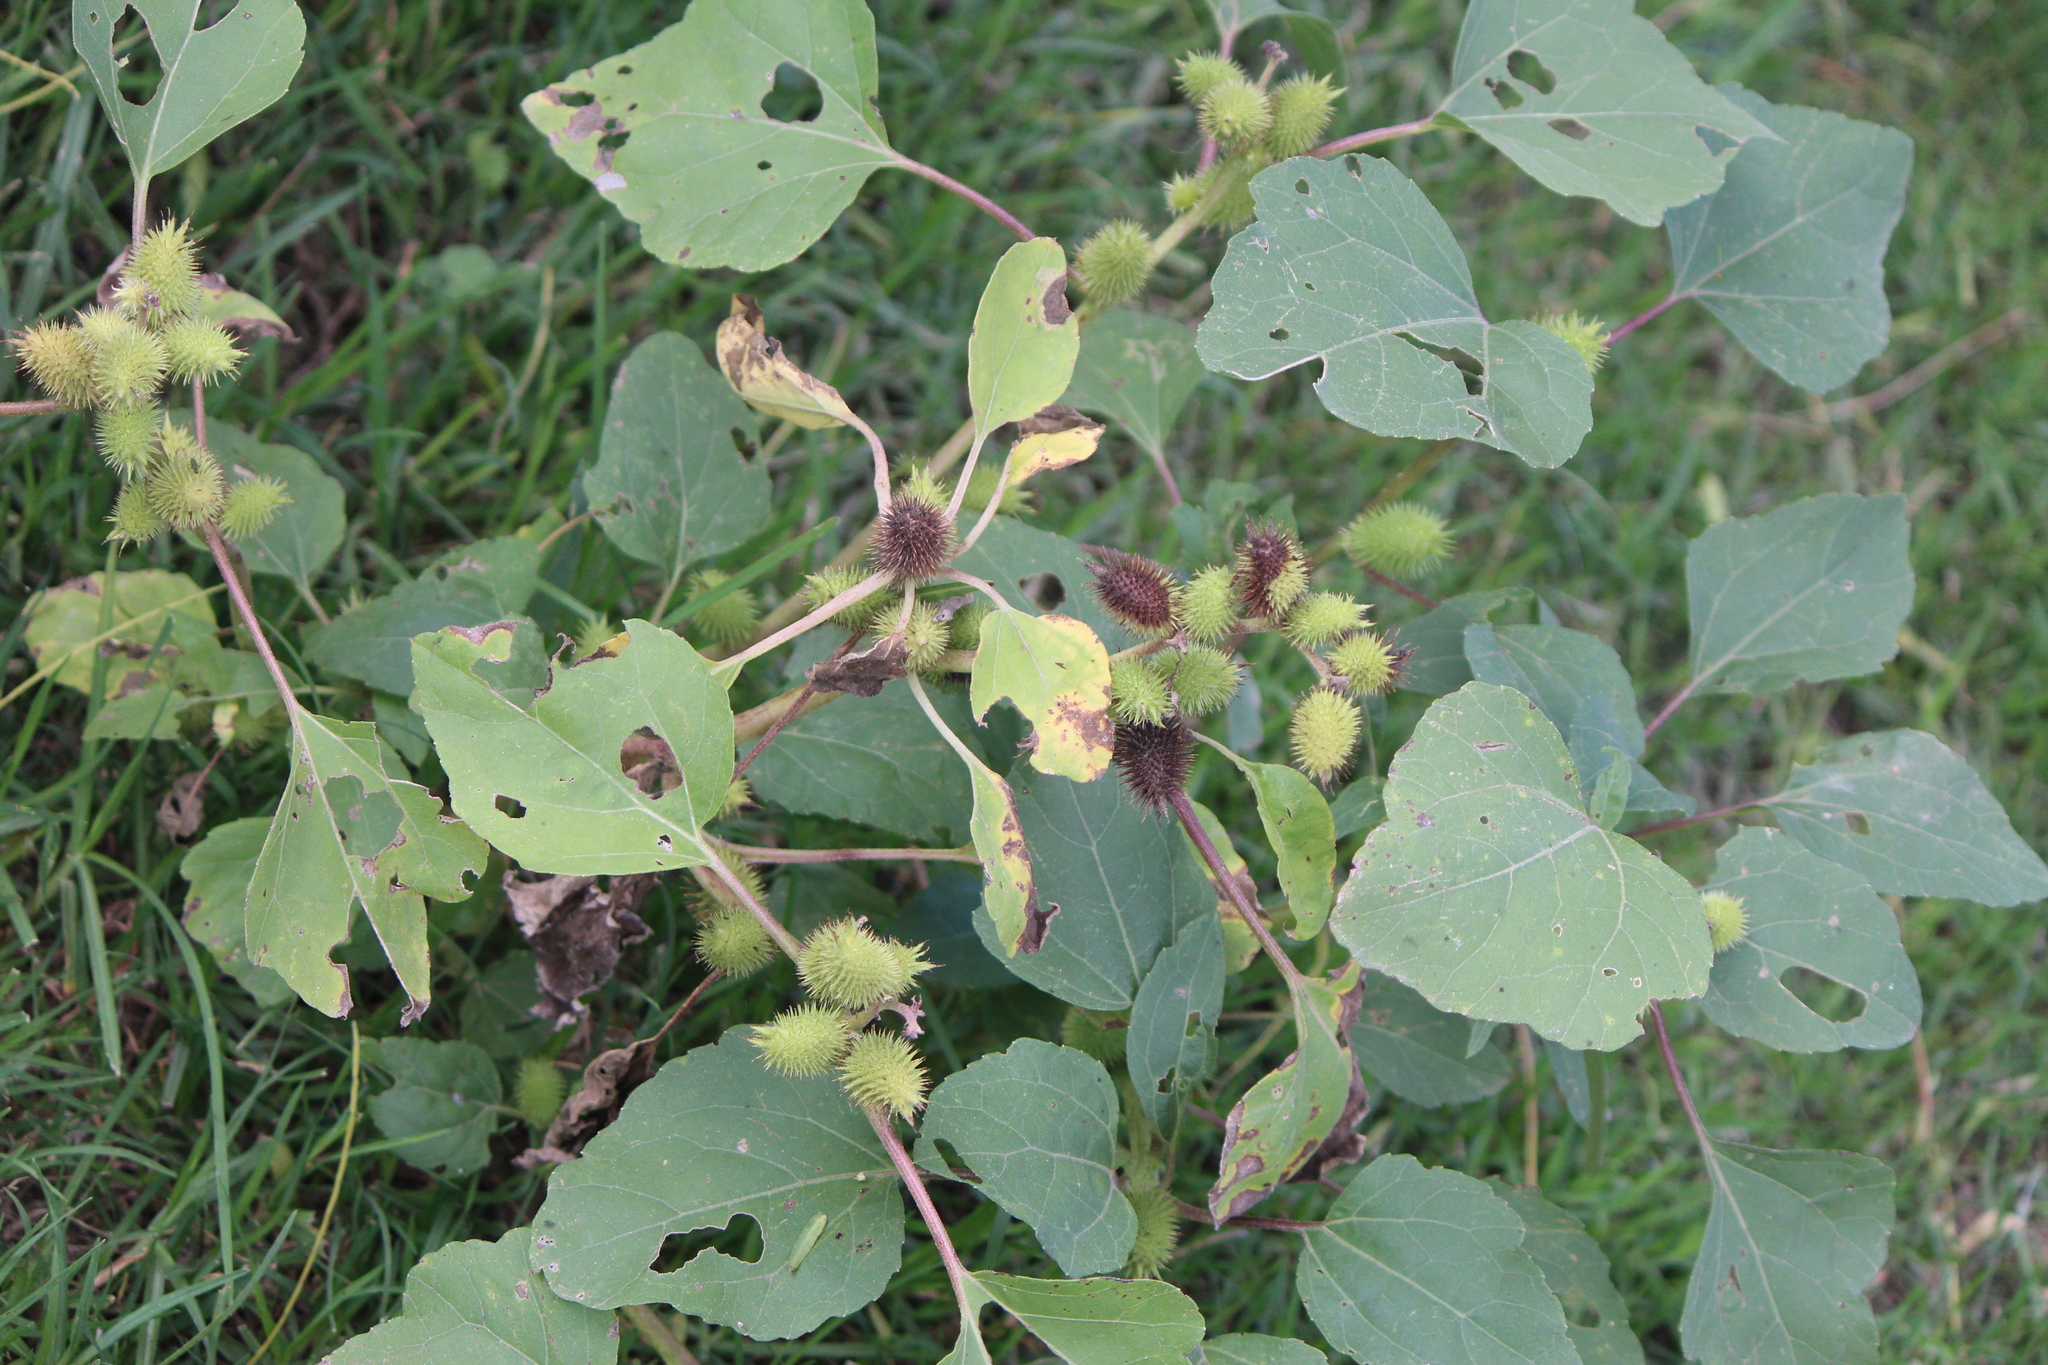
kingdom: Plantae
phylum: Tracheophyta
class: Magnoliopsida
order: Asterales
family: Asteraceae
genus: Xanthium
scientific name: Xanthium strumarium
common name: Rough cocklebur
